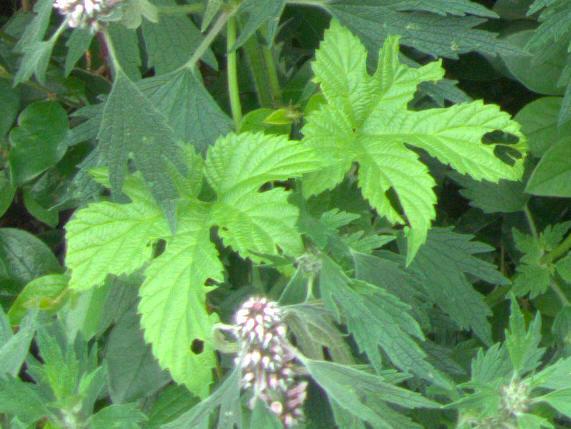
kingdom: Plantae
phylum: Tracheophyta
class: Magnoliopsida
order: Rosales
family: Cannabaceae
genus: Humulus
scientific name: Humulus lupulus
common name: Hop
